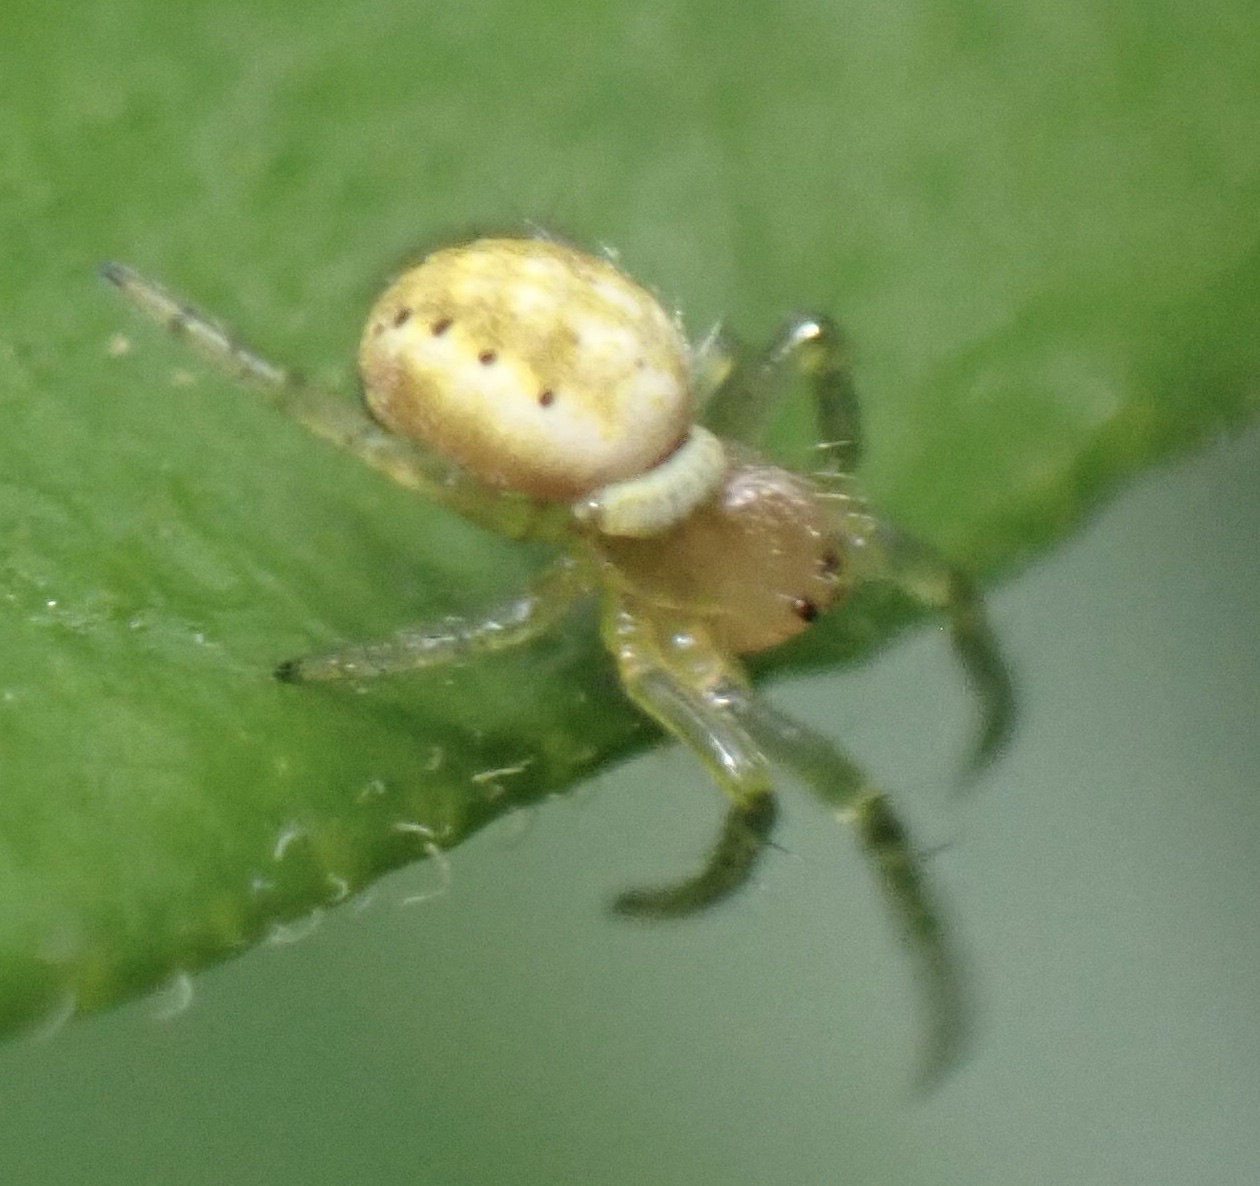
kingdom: Animalia
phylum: Arthropoda
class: Arachnida
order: Araneae
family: Araneidae
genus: Araniella
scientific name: Araniella opisthographa
